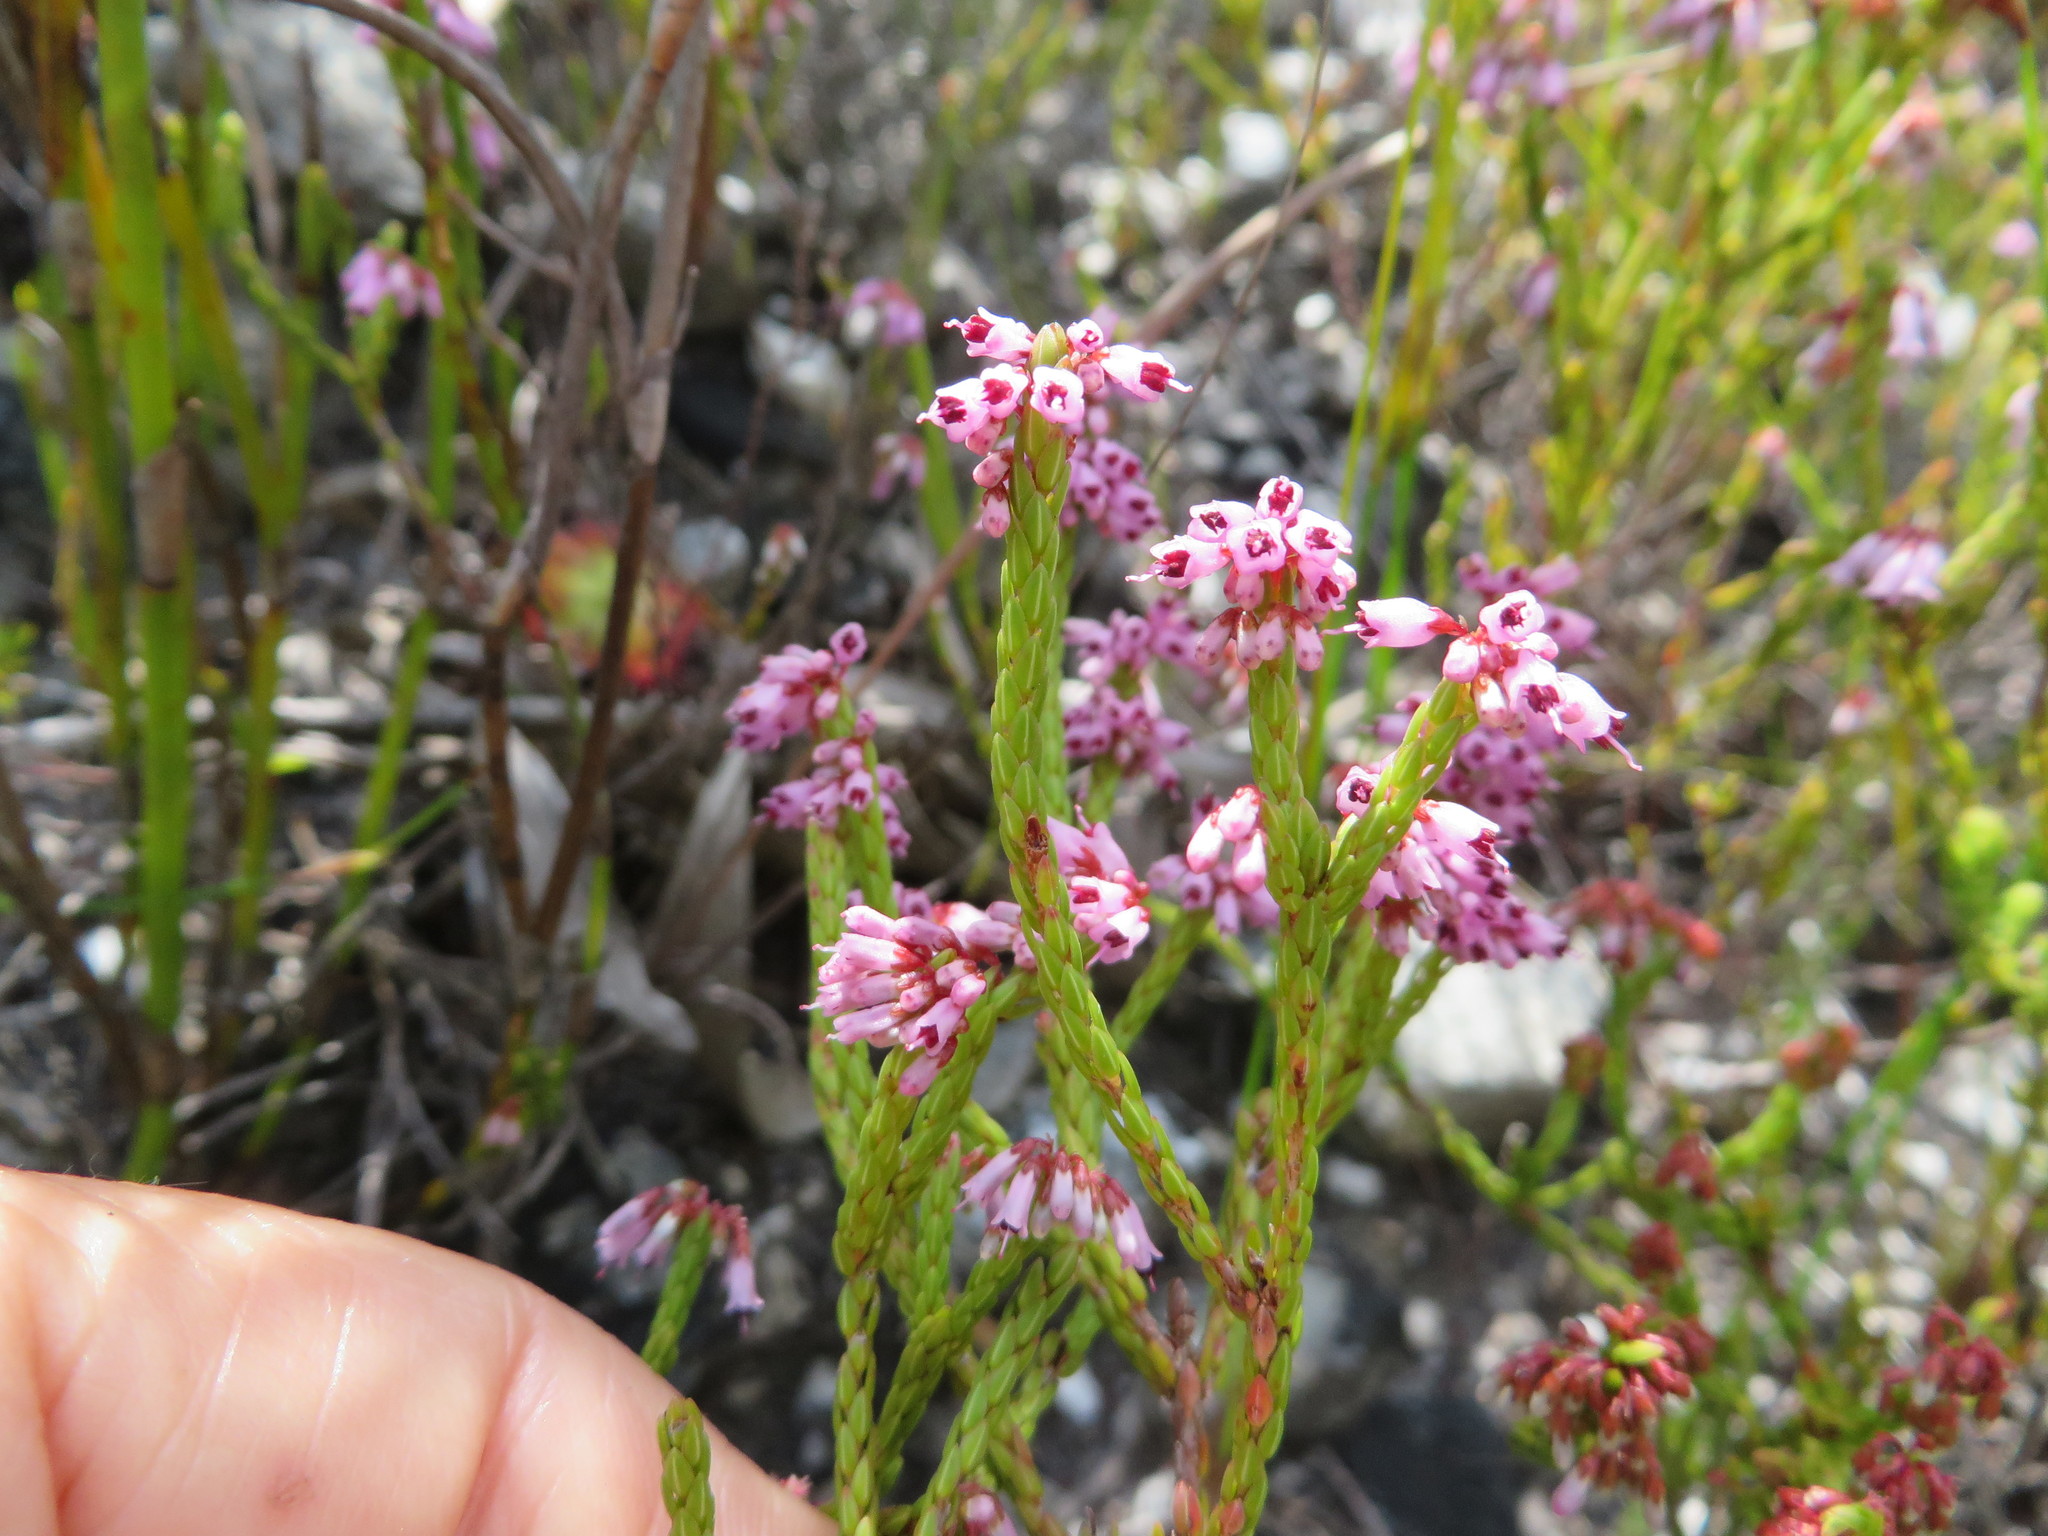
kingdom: Plantae
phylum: Tracheophyta
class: Magnoliopsida
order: Ericales
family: Ericaceae
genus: Erica
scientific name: Erica equisetifolia
